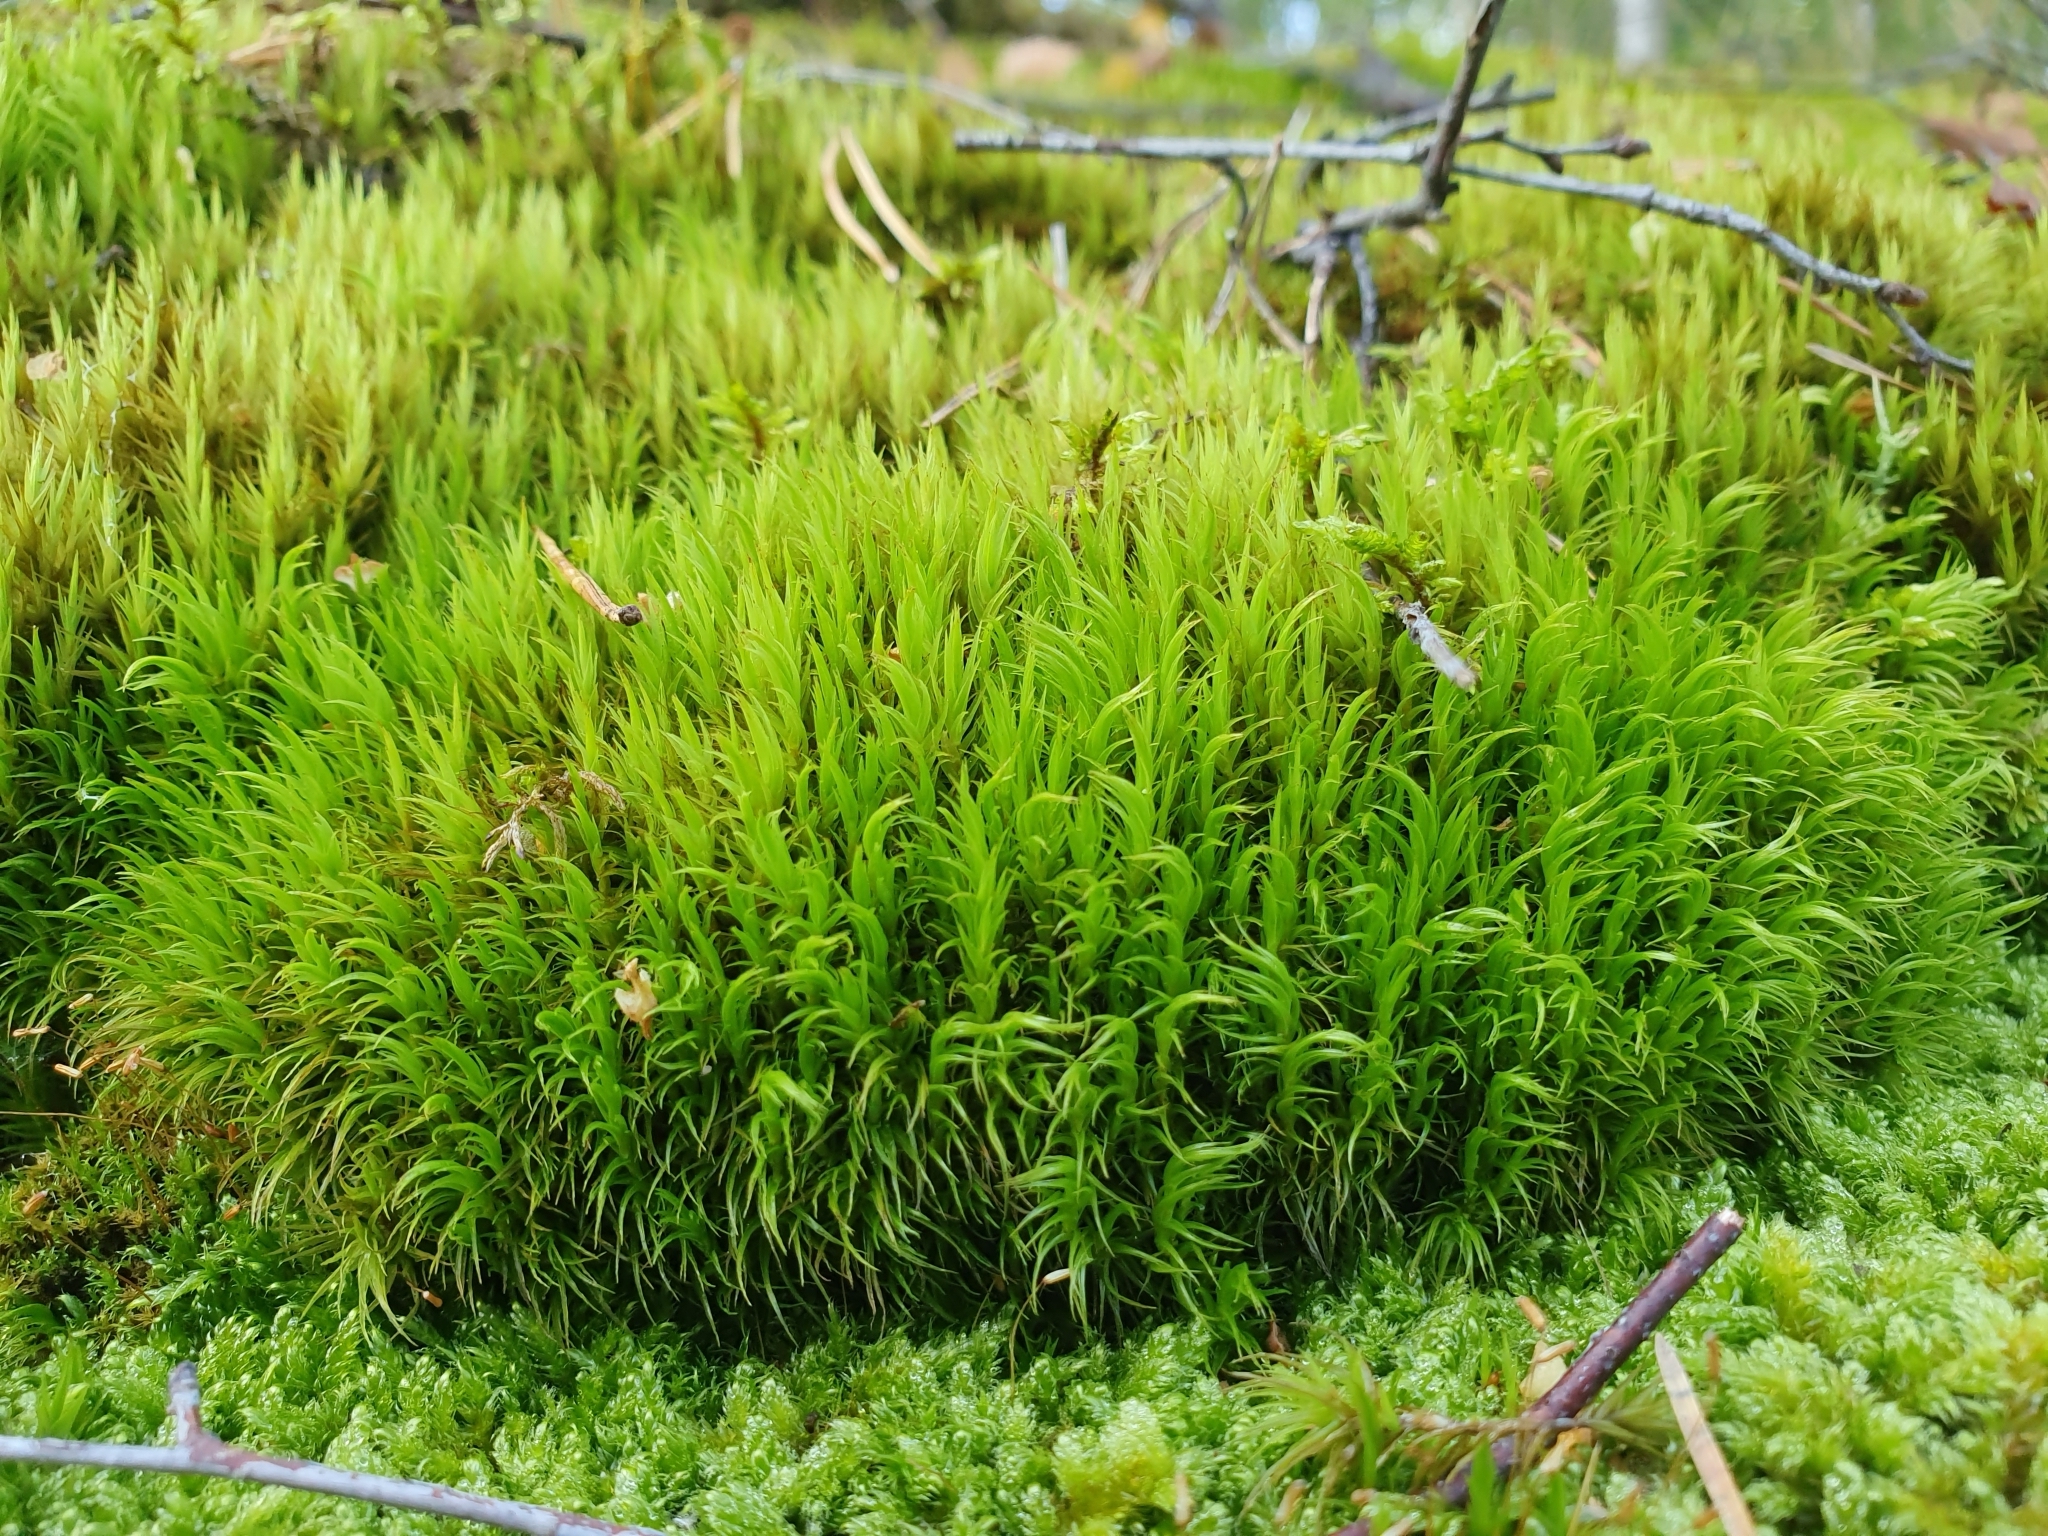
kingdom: Plantae
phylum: Bryophyta
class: Bryopsida
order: Dicranales
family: Dicranaceae
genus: Dicranum
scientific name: Dicranum scoparium
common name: Broom fork-moss
